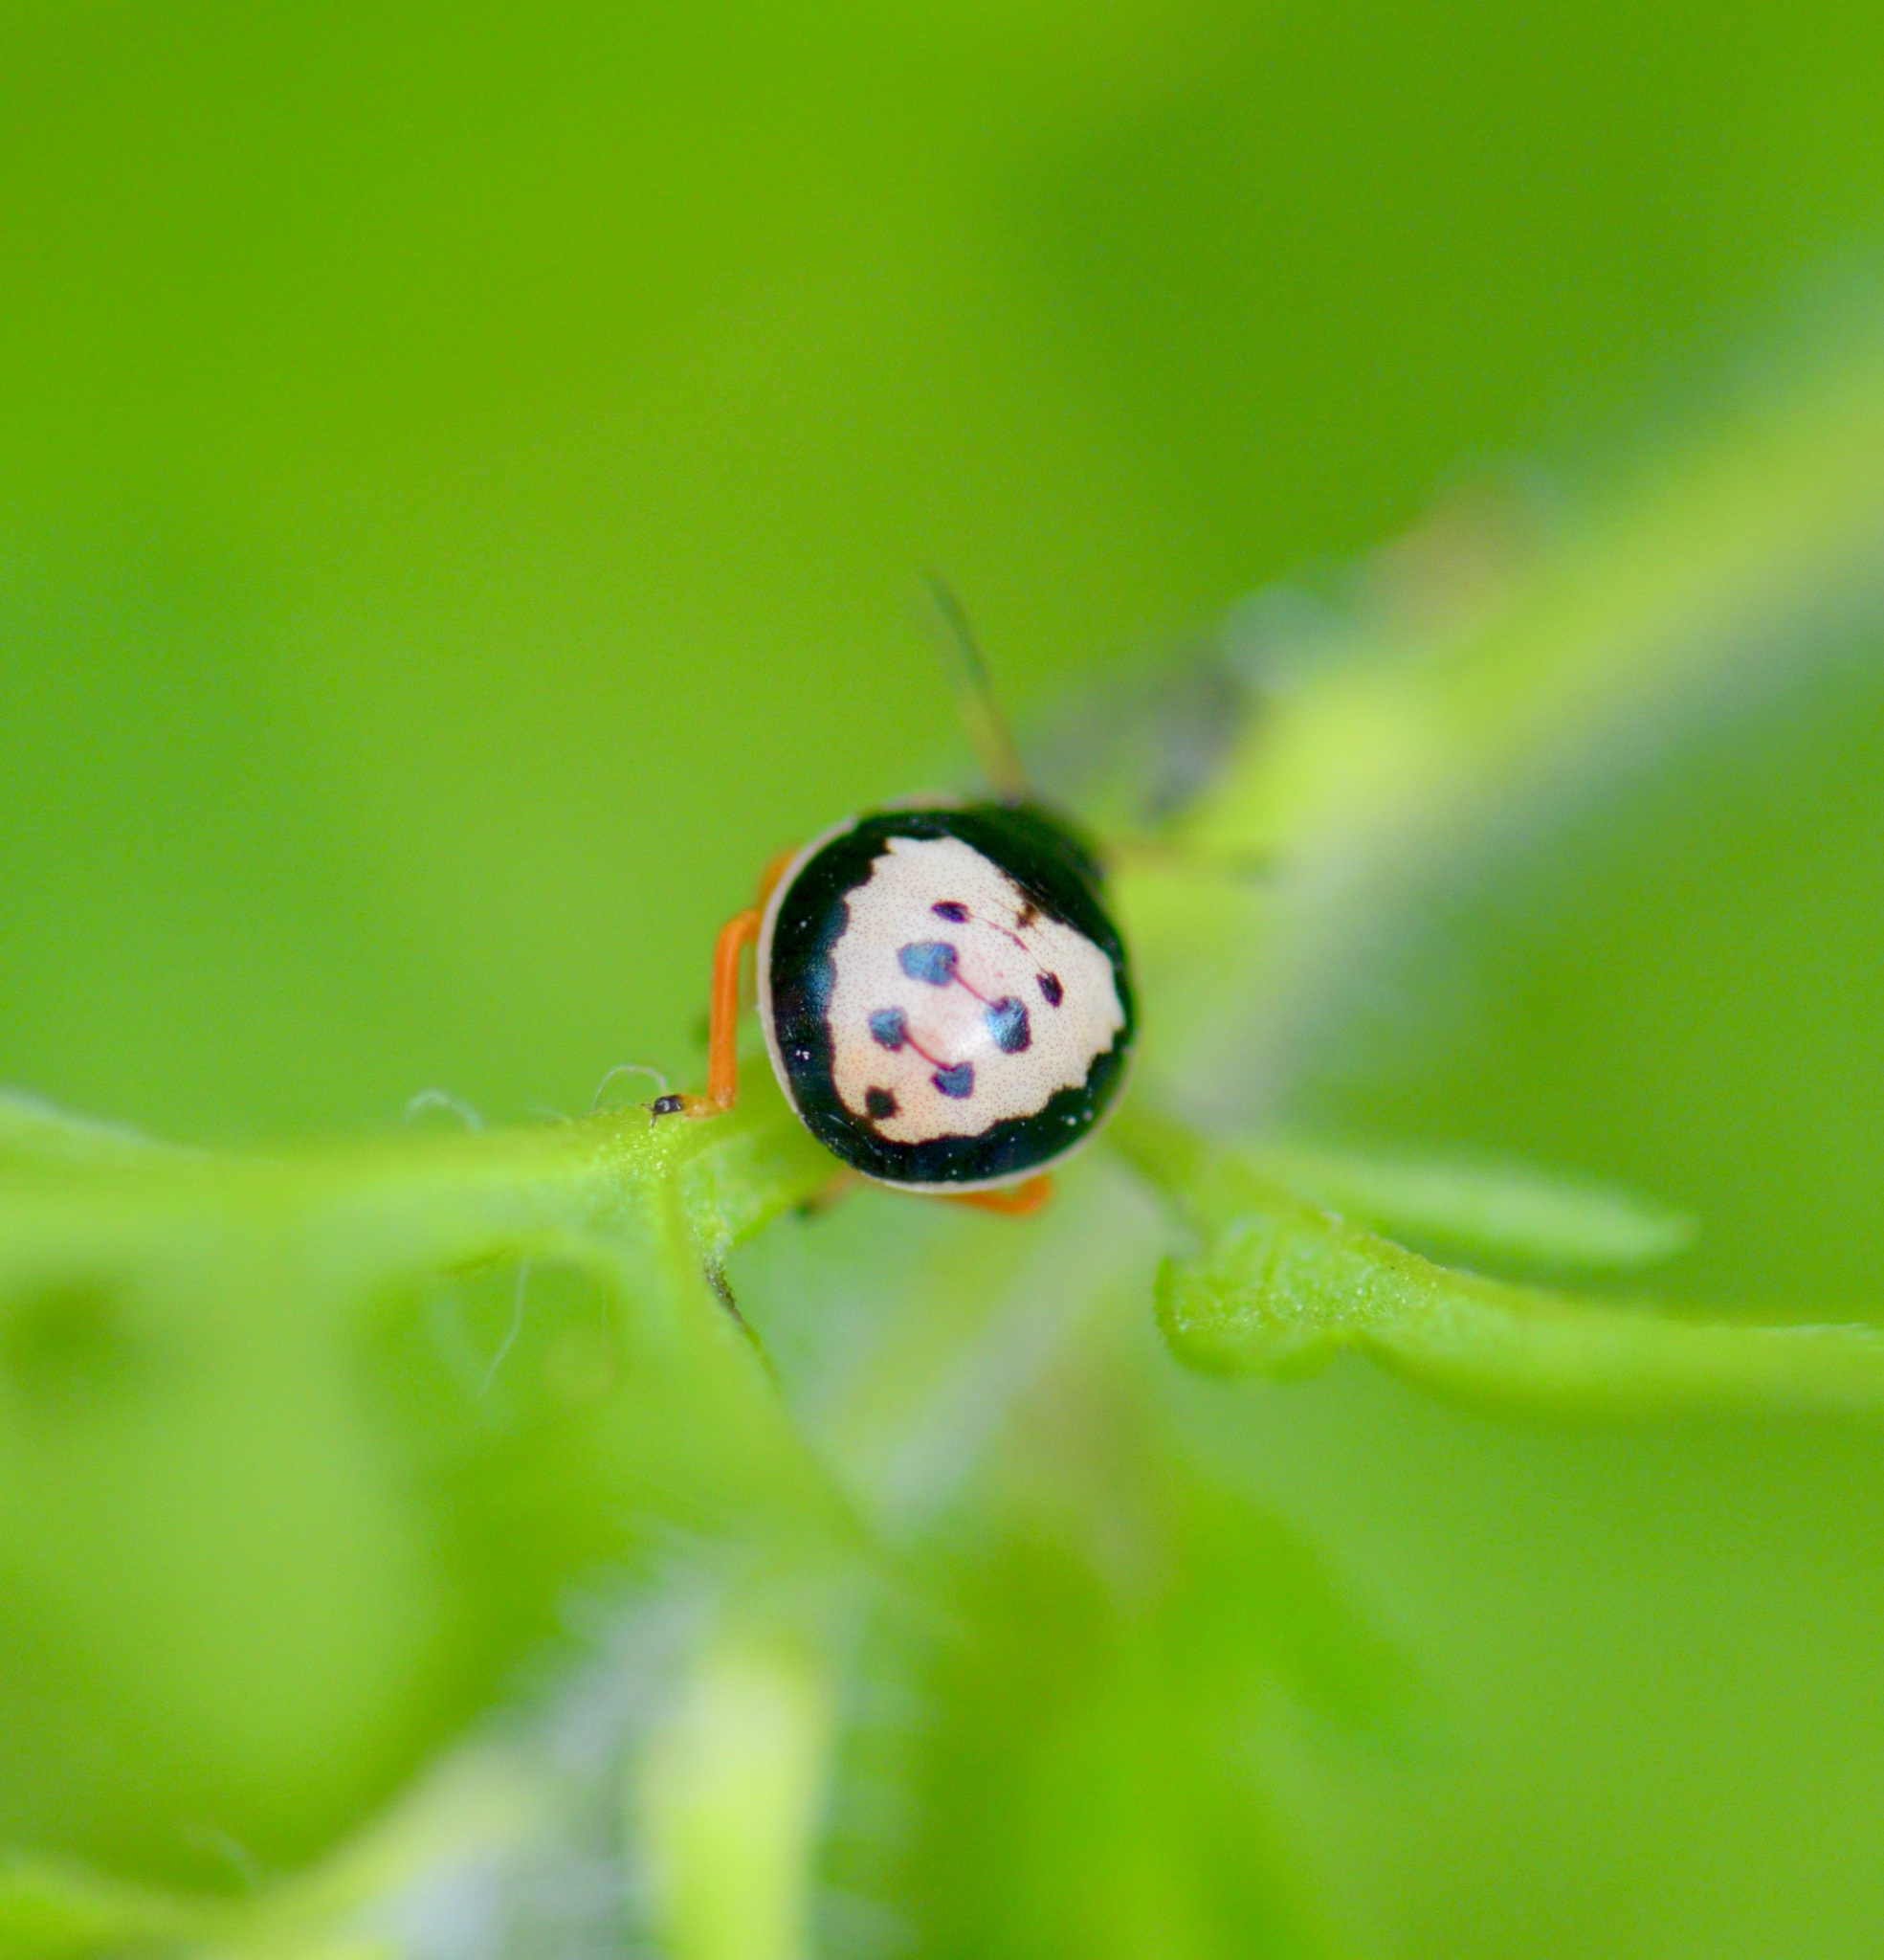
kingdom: Animalia
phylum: Arthropoda
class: Insecta
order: Hemiptera
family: Pentatomidae
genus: Stiretrus
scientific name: Stiretrus anchorago
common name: Anchor stink bug
